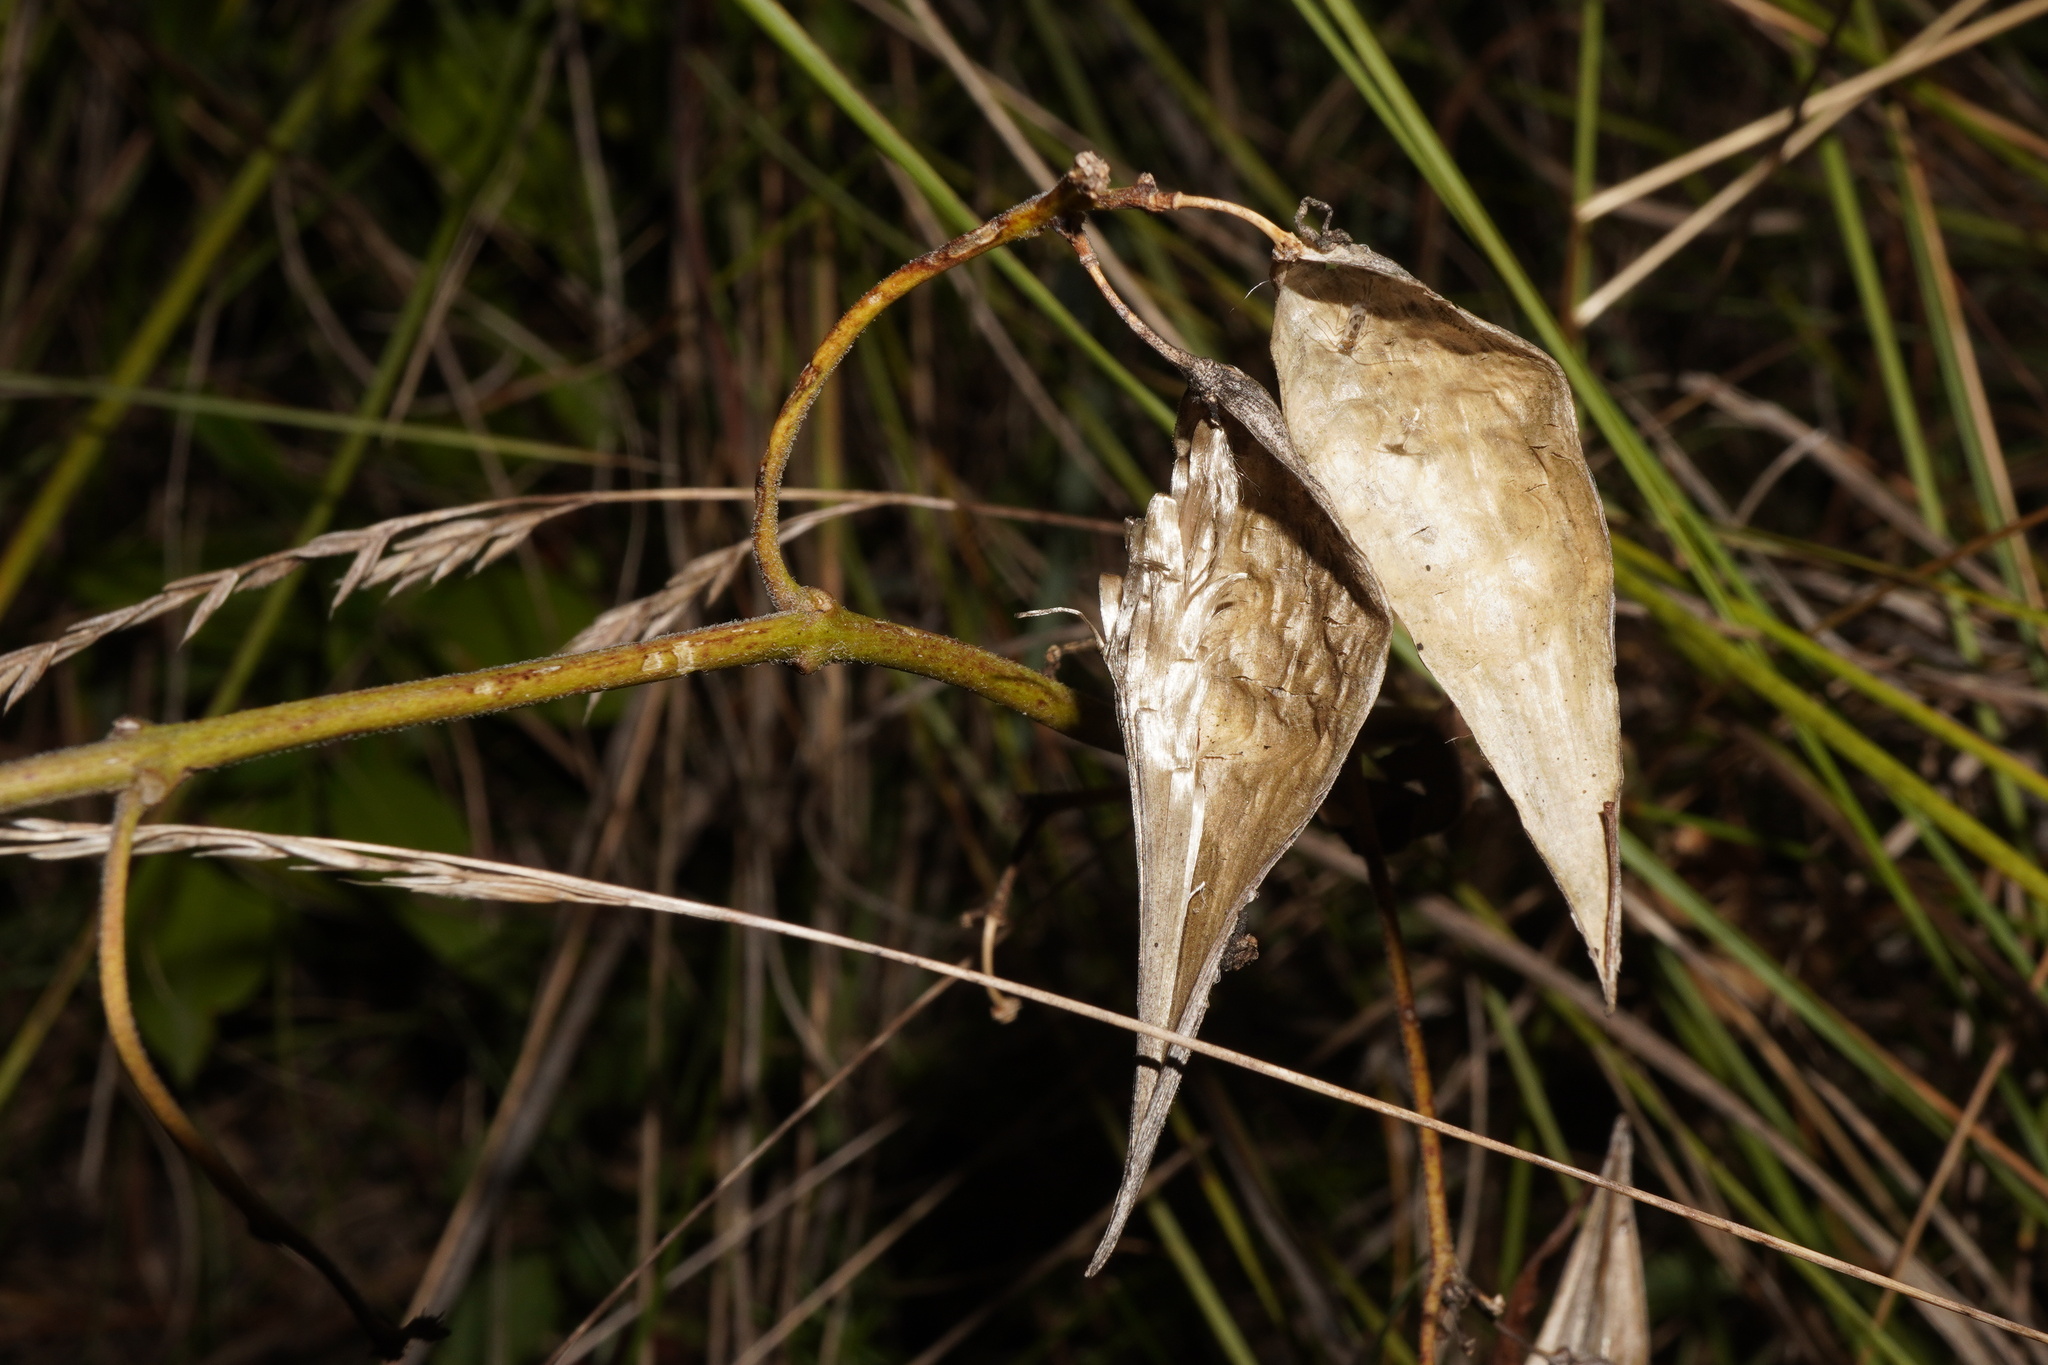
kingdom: Plantae
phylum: Tracheophyta
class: Magnoliopsida
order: Gentianales
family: Apocynaceae
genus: Vincetoxicum
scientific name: Vincetoxicum hirundinaria
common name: White swallowwort
